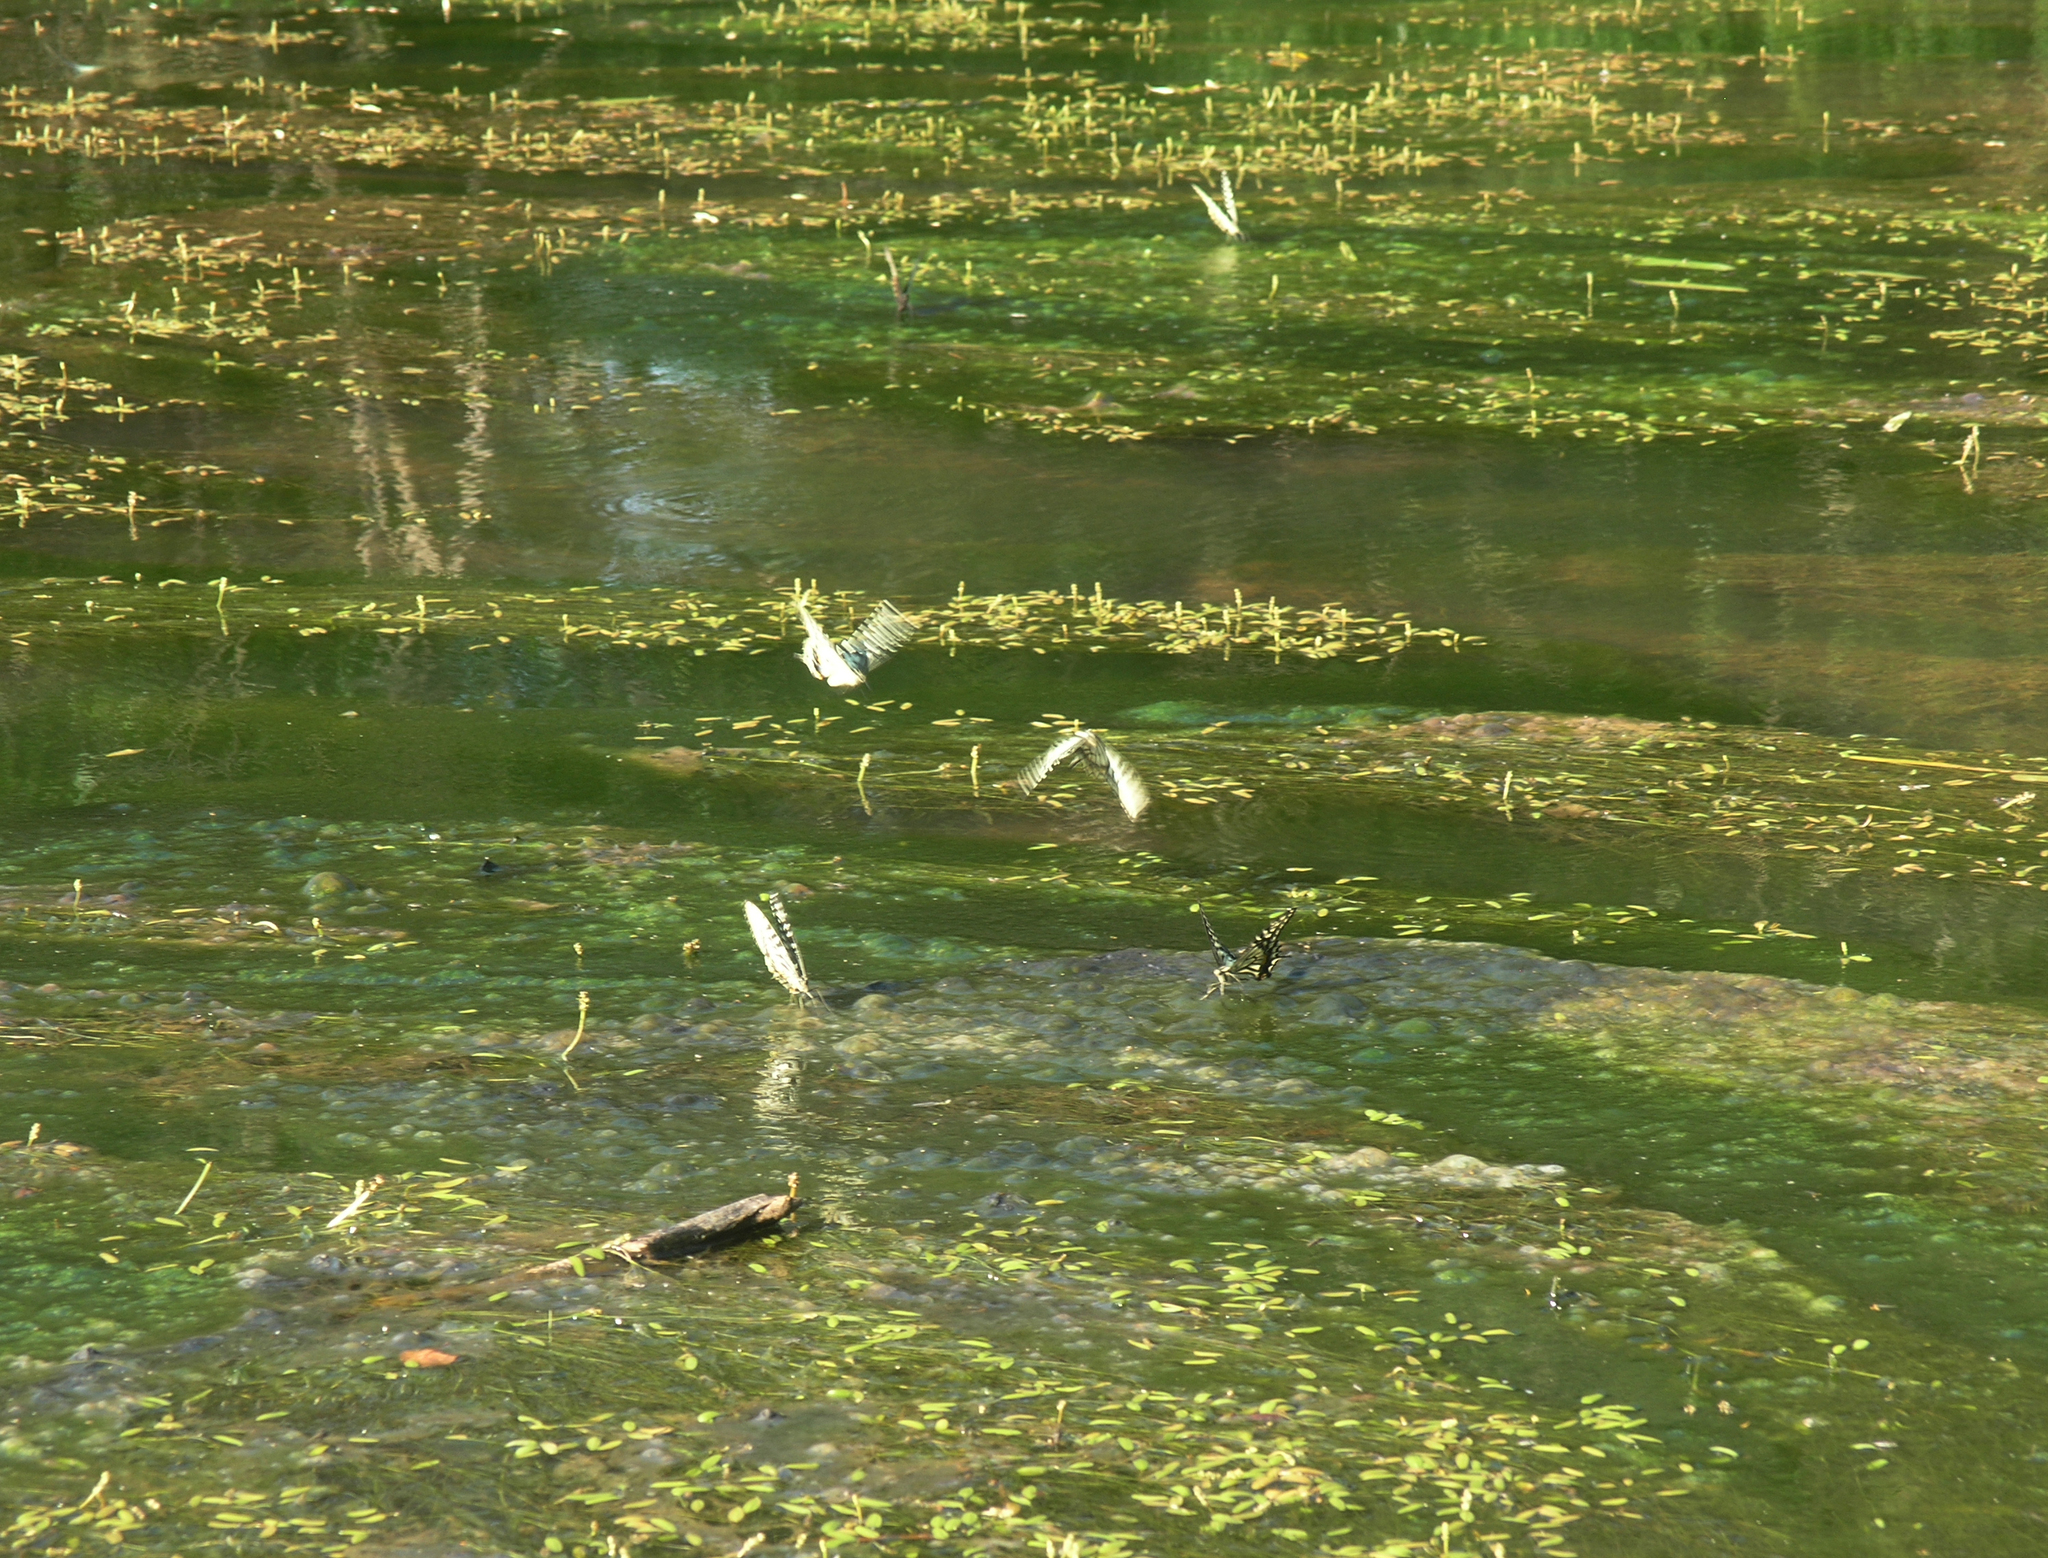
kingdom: Animalia
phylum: Arthropoda
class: Insecta
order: Lepidoptera
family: Papilionidae
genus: Papilio
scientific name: Papilio xuthus
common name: Asian swallowtail
